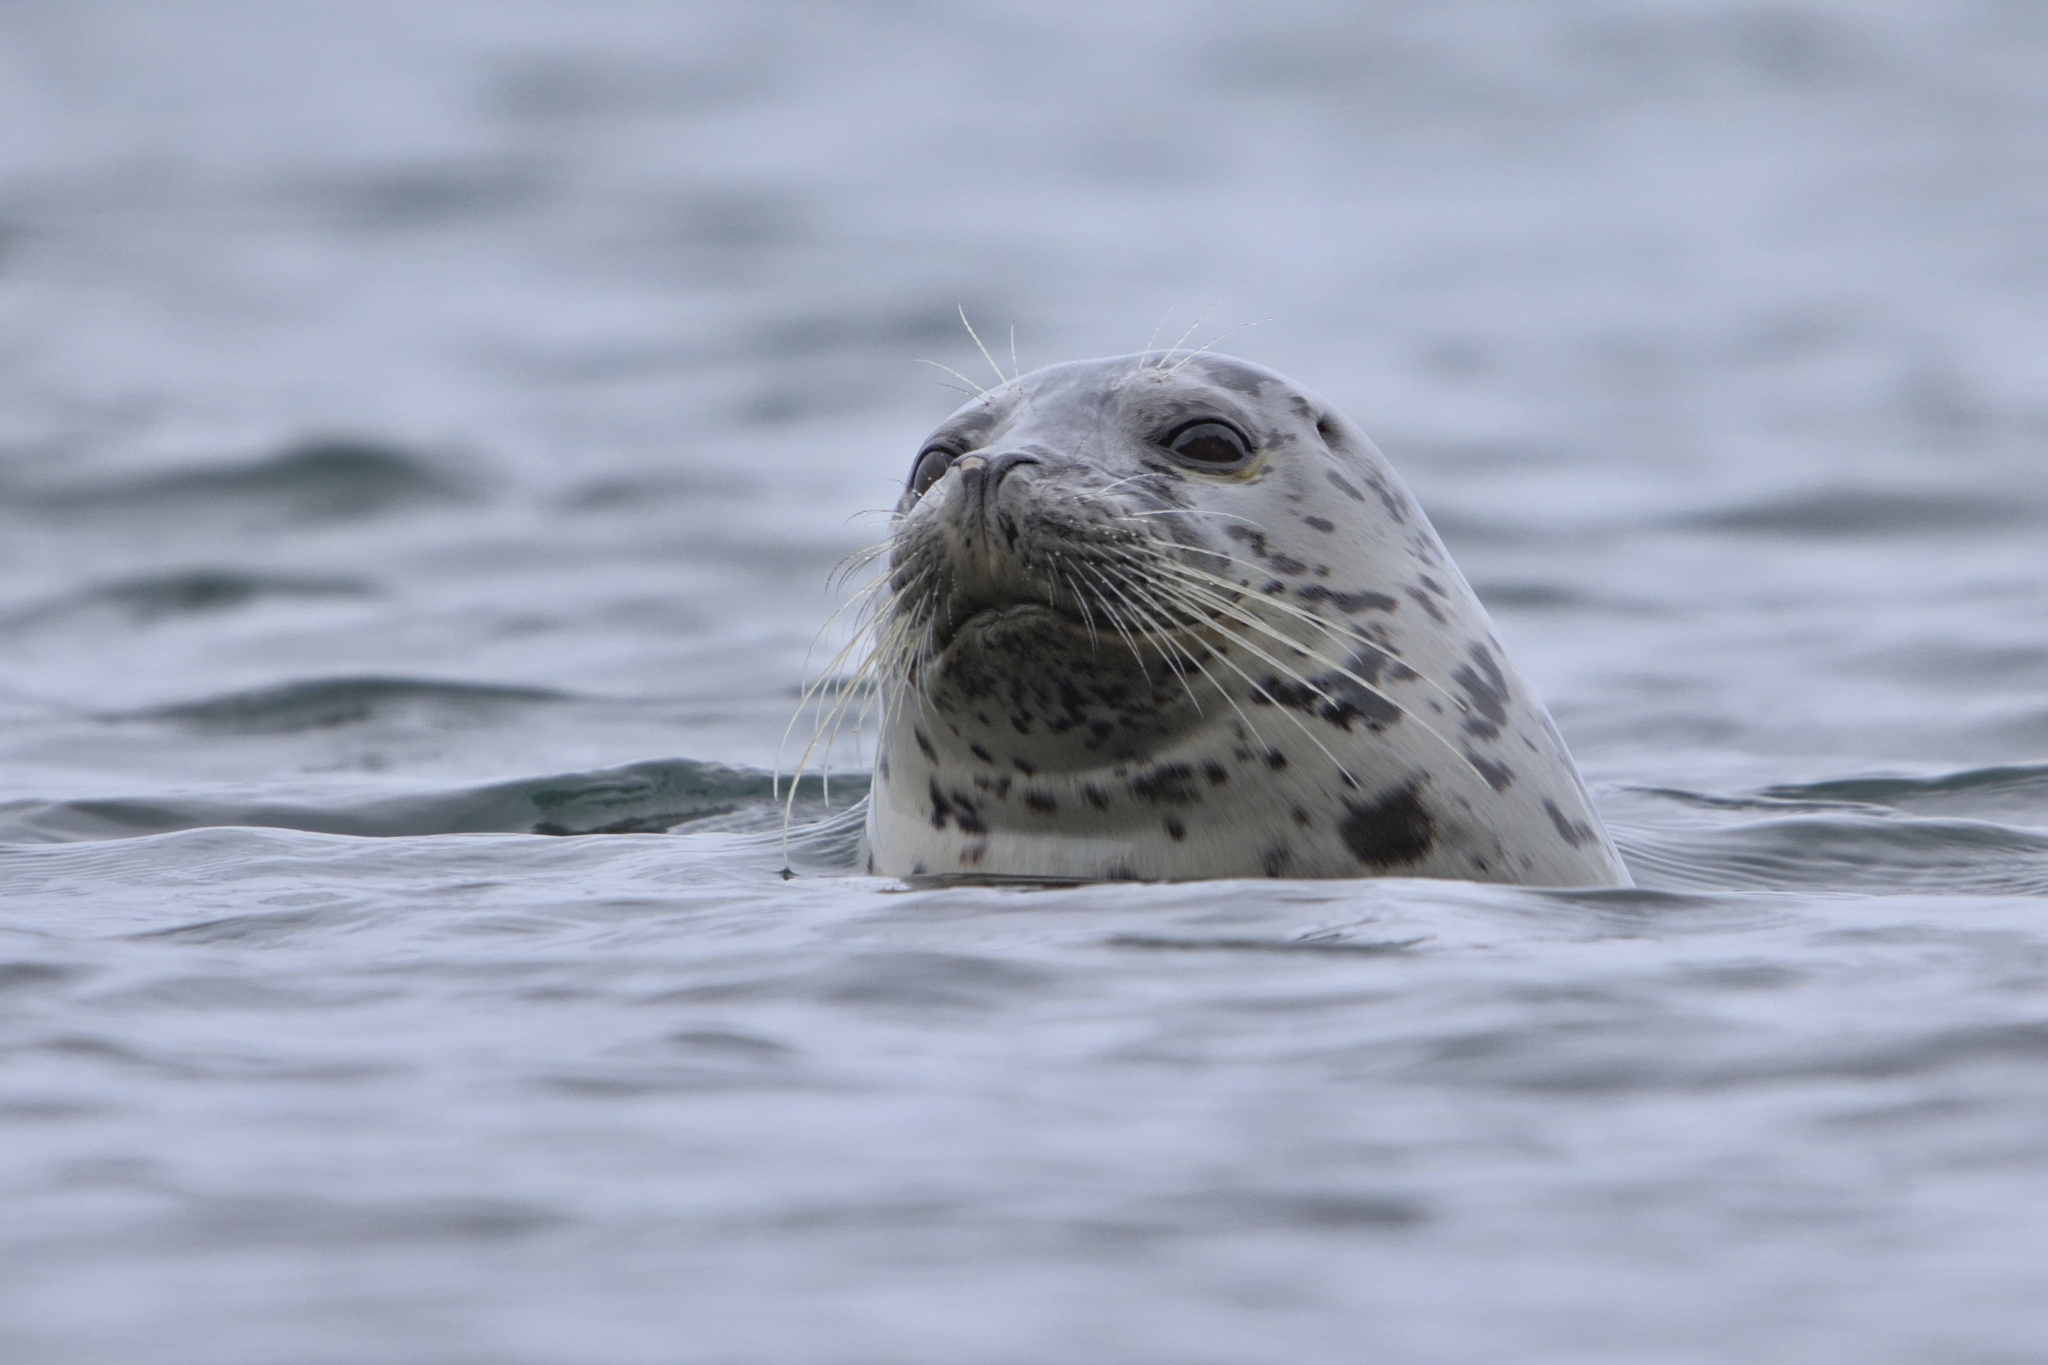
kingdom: Animalia
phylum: Chordata
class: Mammalia
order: Carnivora
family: Phocidae
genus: Phoca
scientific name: Phoca vitulina
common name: Harbor seal
